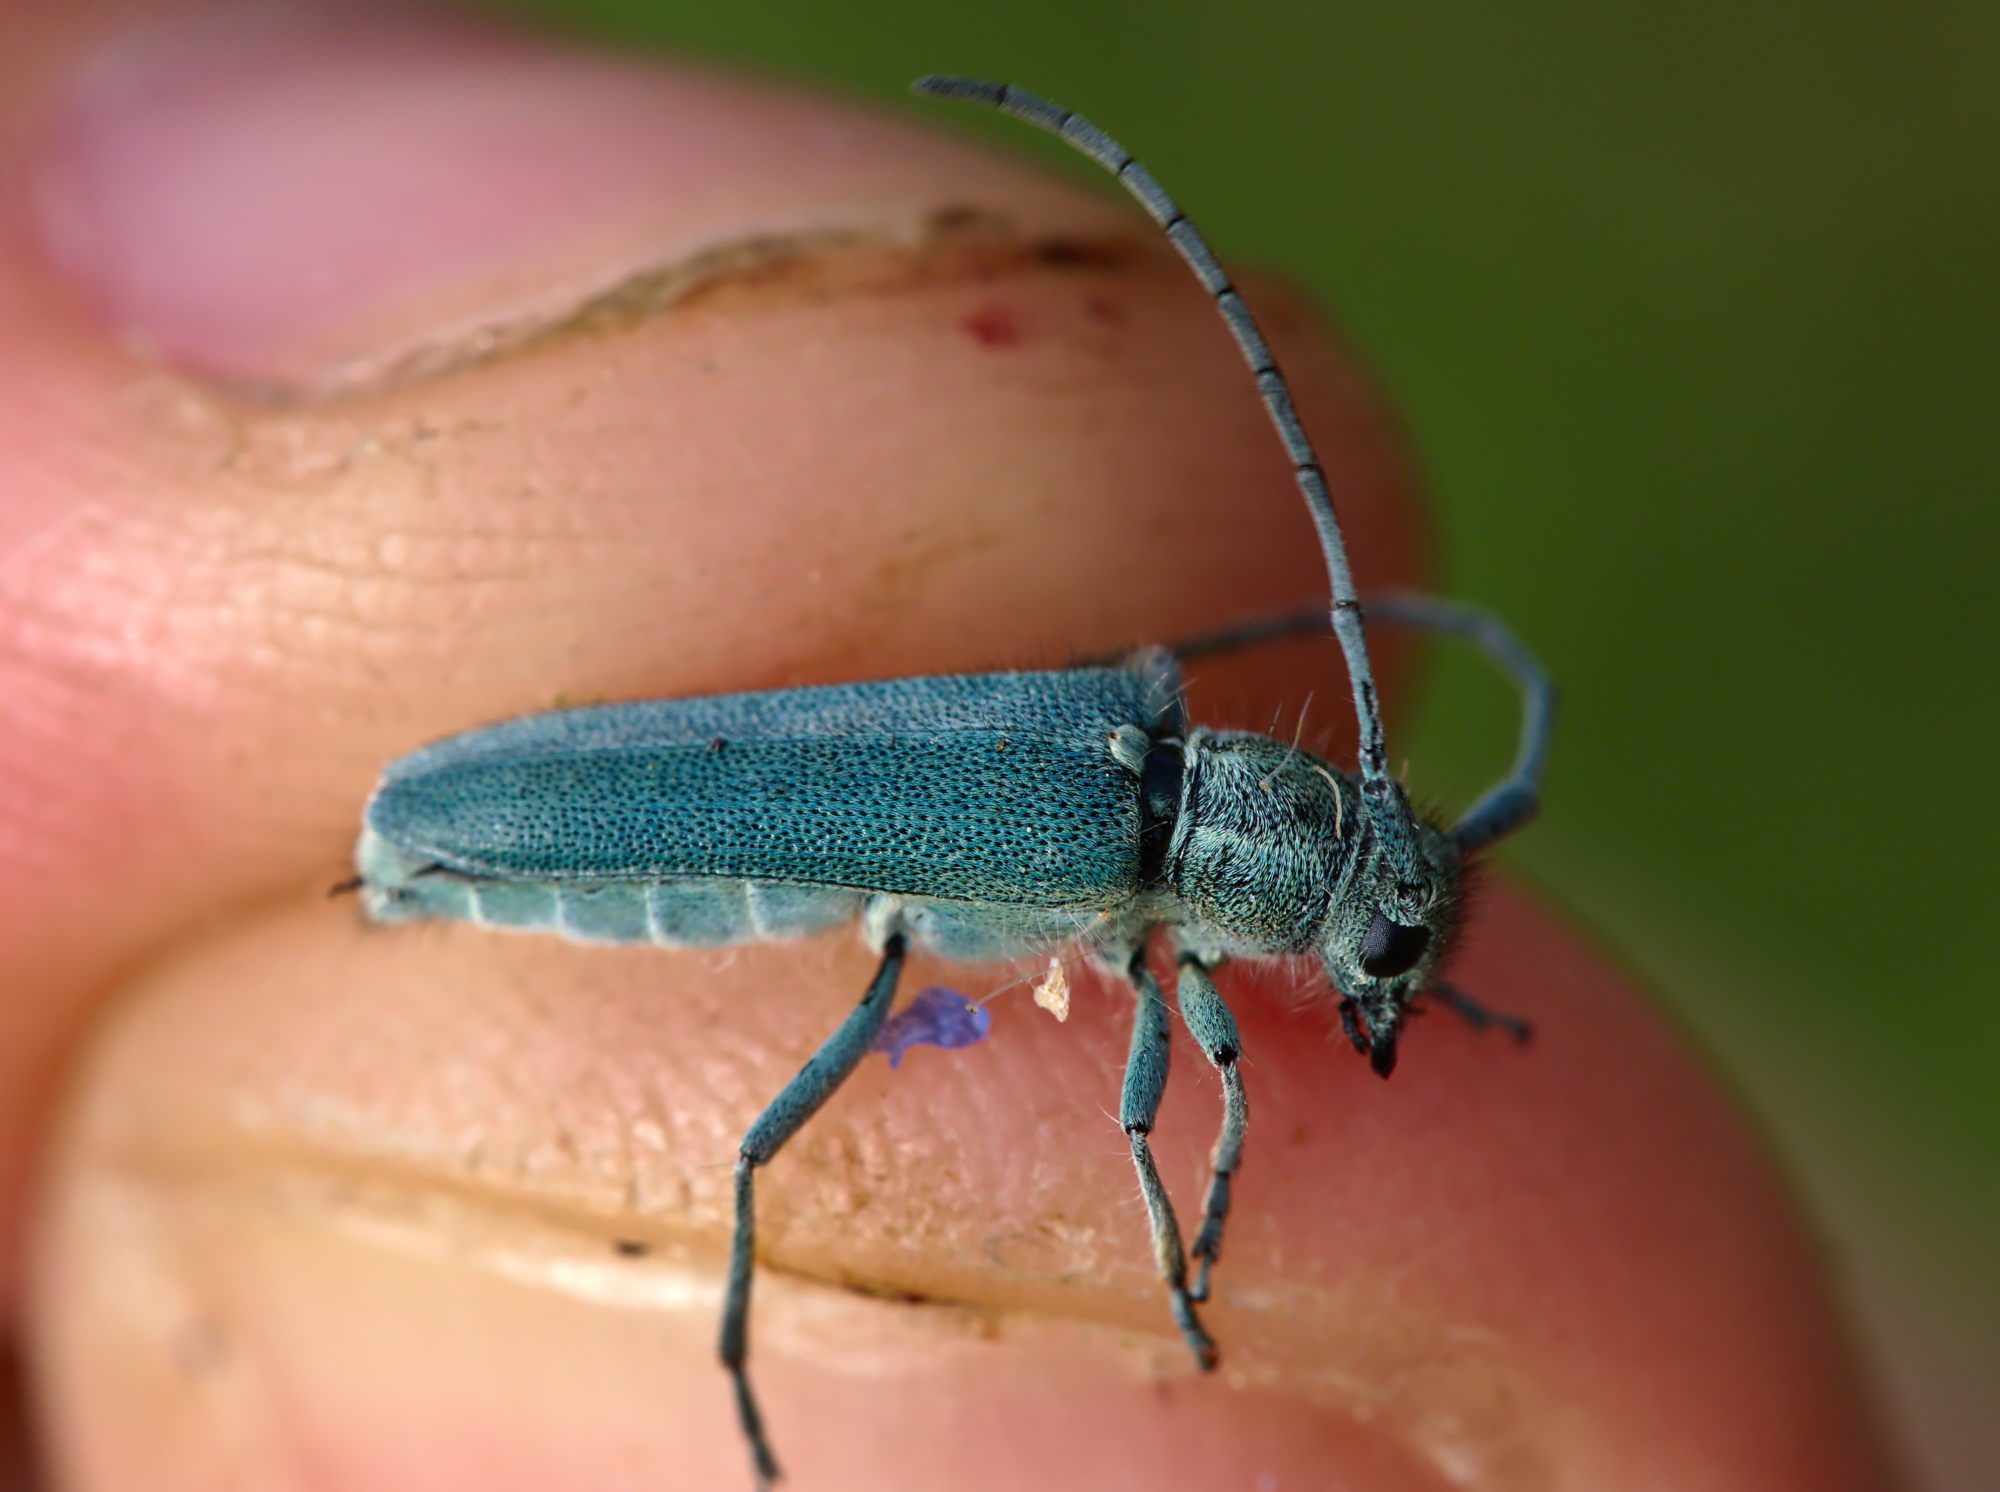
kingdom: Animalia
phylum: Arthropoda
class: Insecta
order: Coleoptera
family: Cerambycidae
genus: Phytoecia
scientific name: Phytoecia coerulescens
